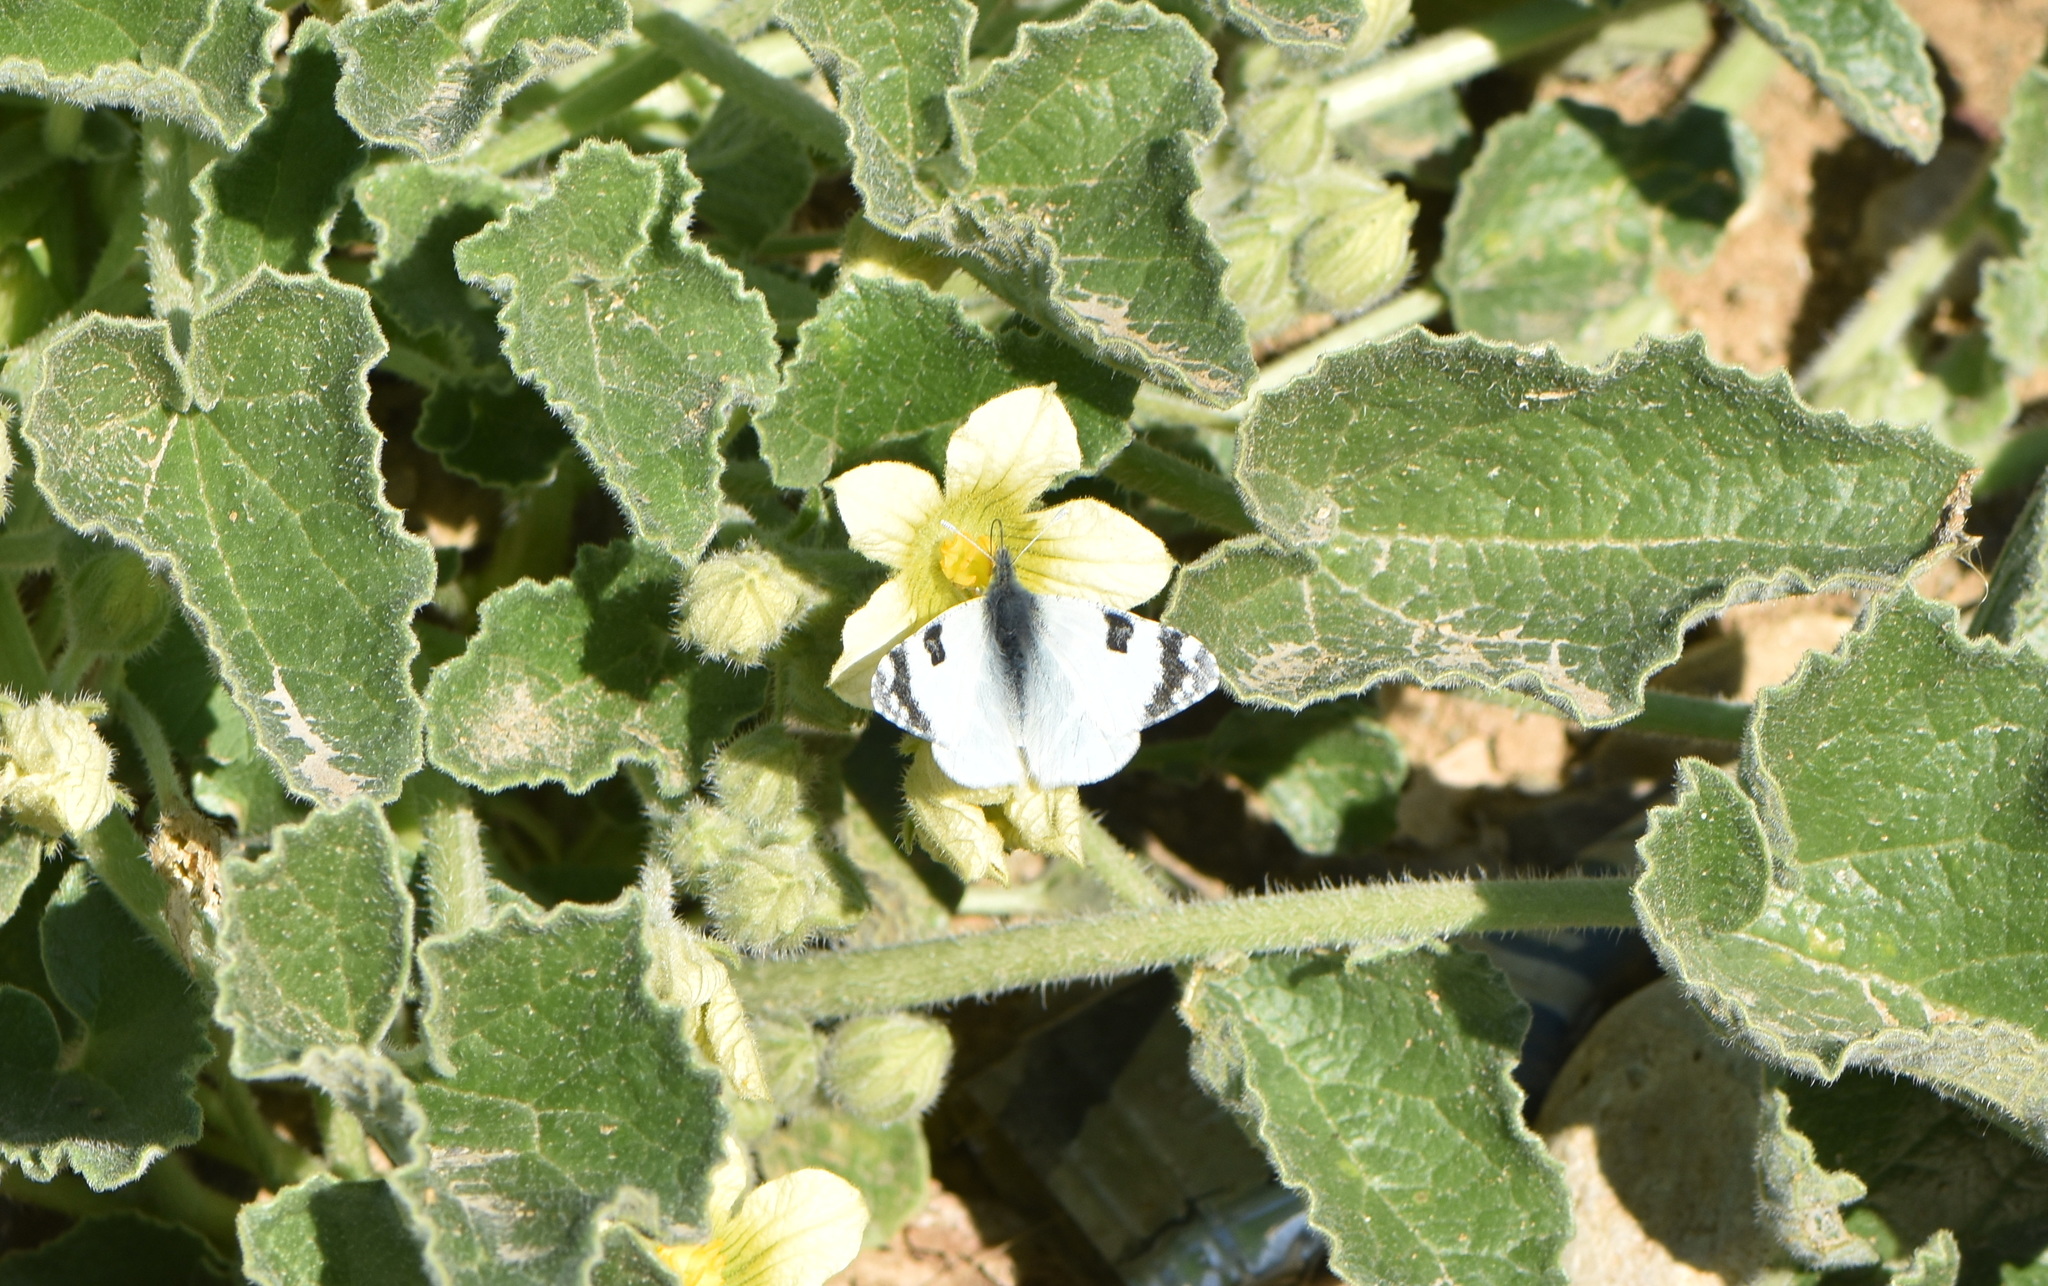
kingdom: Animalia
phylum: Arthropoda
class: Insecta
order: Lepidoptera
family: Pieridae
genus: Euchloe
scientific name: Euchloe belemia
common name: Green-striped white
